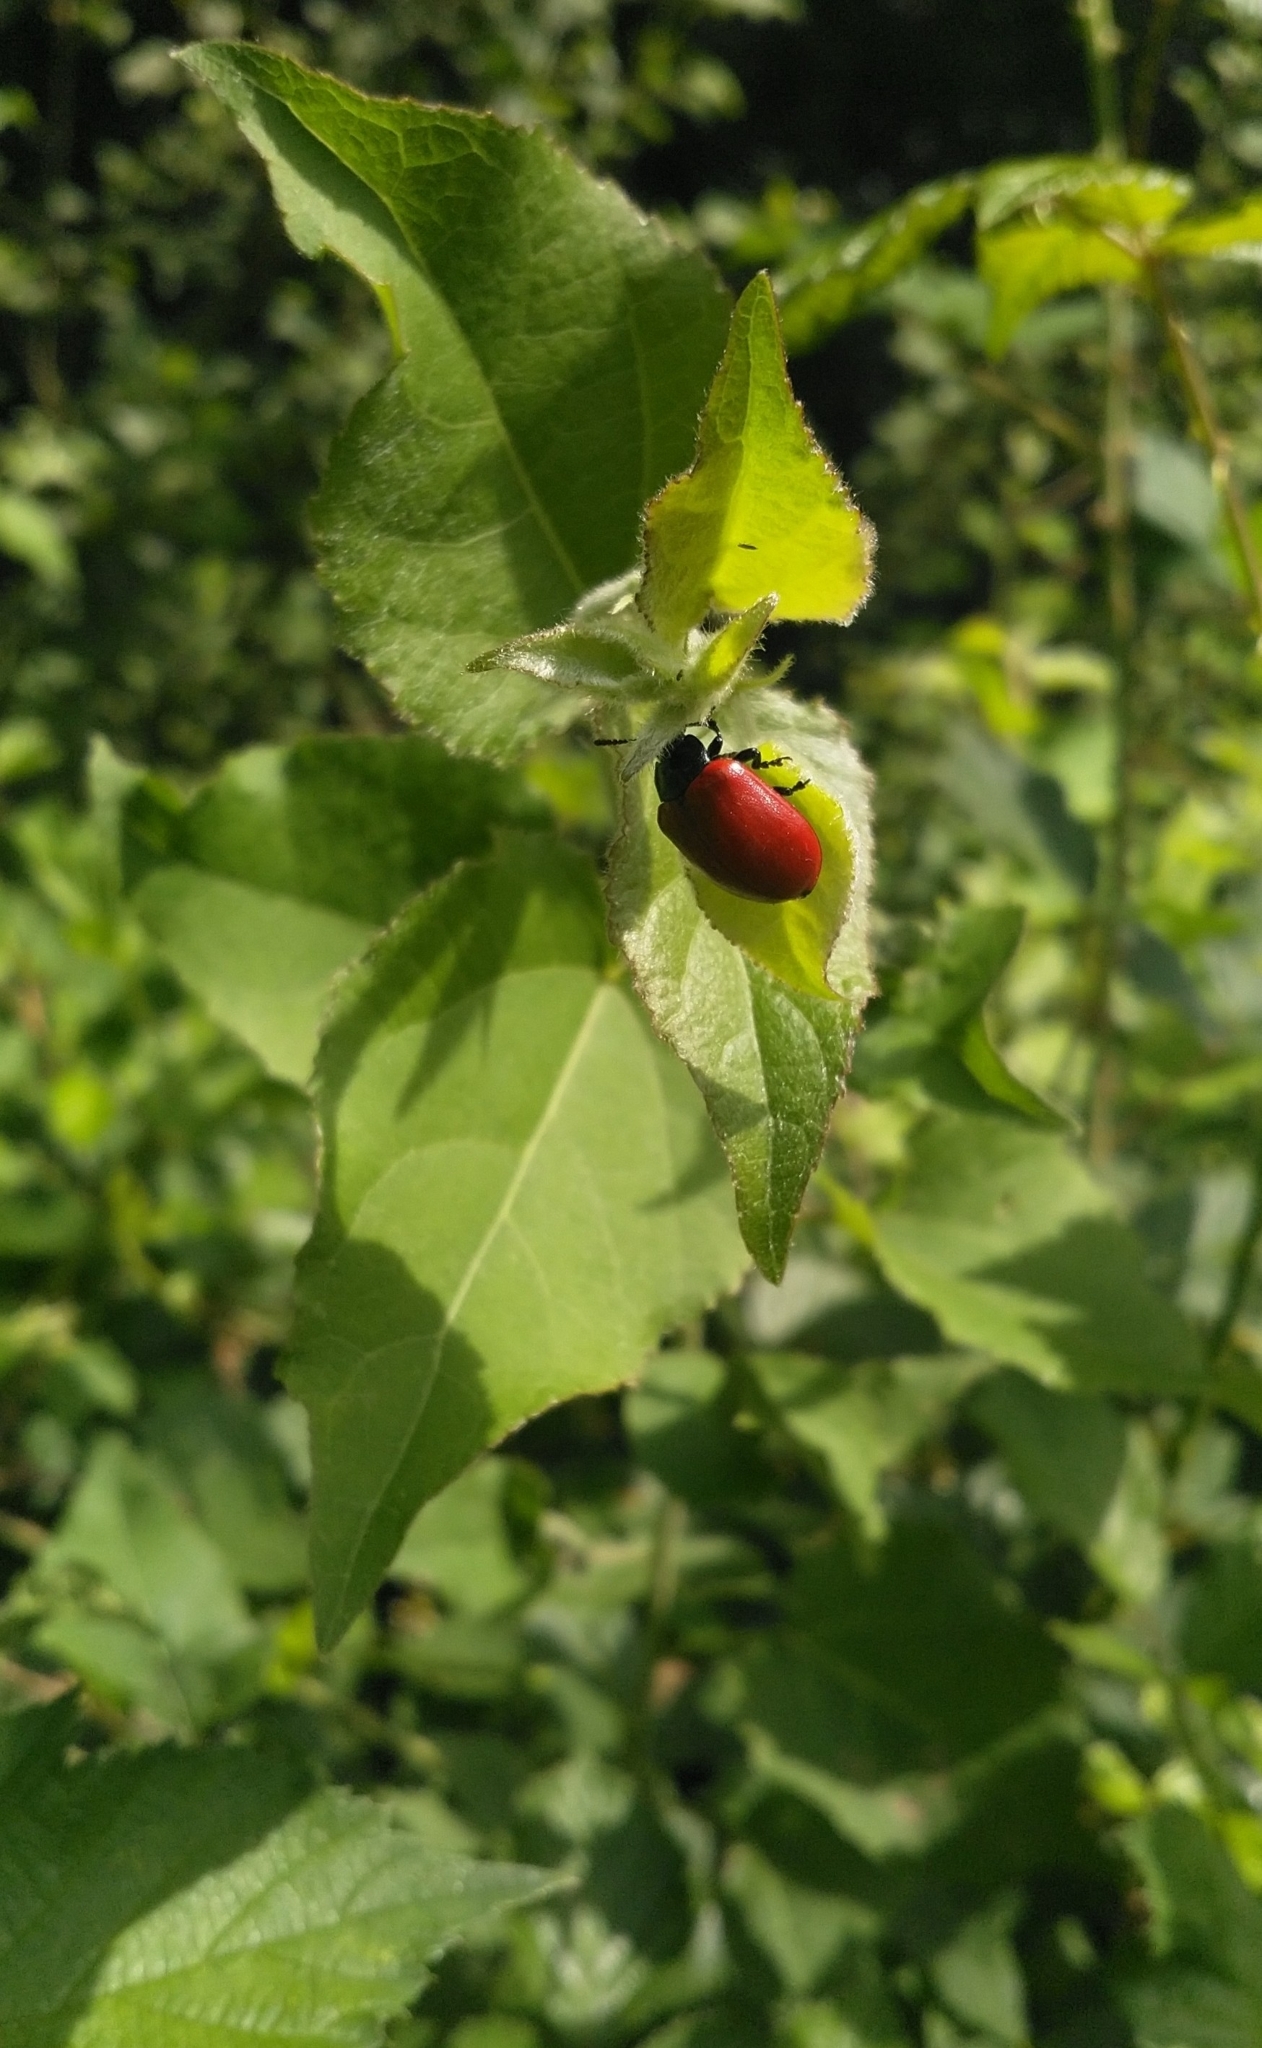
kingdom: Animalia
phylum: Arthropoda
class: Insecta
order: Coleoptera
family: Chrysomelidae
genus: Chrysomela
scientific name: Chrysomela populi
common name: Red poplar leaf beetle
